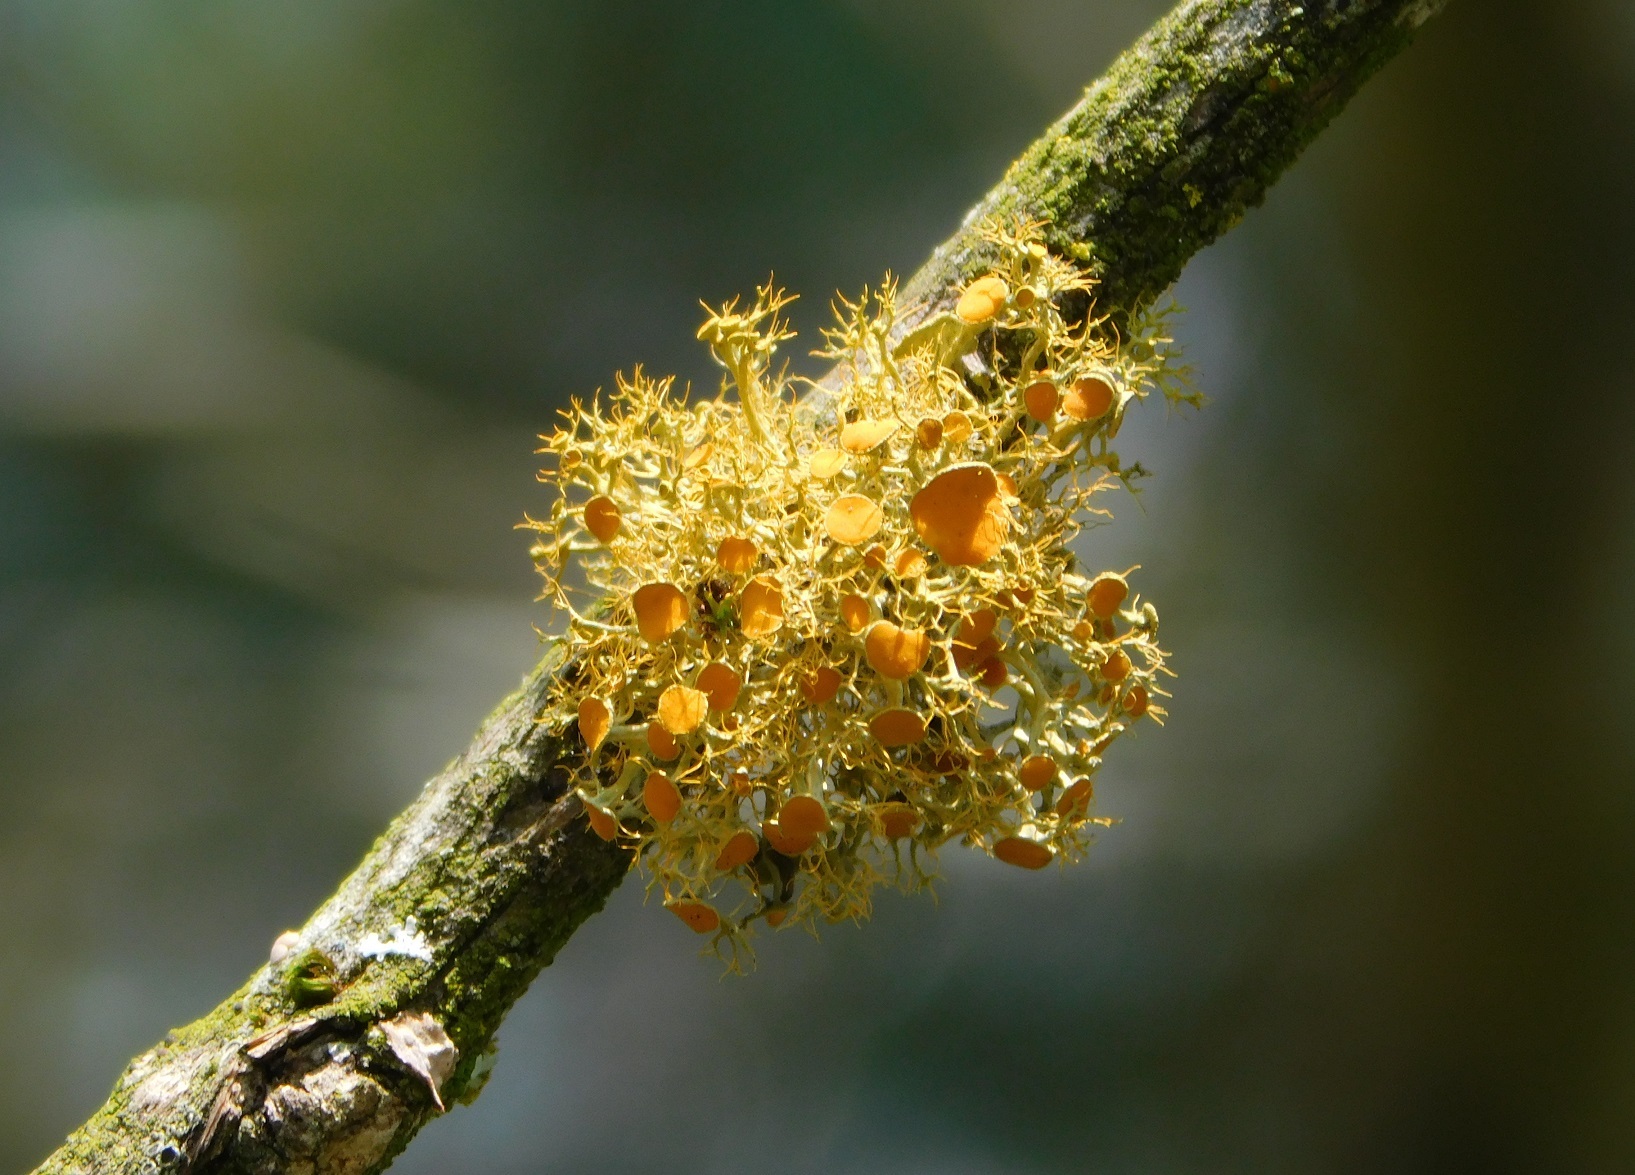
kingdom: Fungi
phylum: Ascomycota
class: Lecanoromycetes
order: Teloschistales
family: Teloschistaceae
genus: Teloschistes
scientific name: Teloschistes exilis
